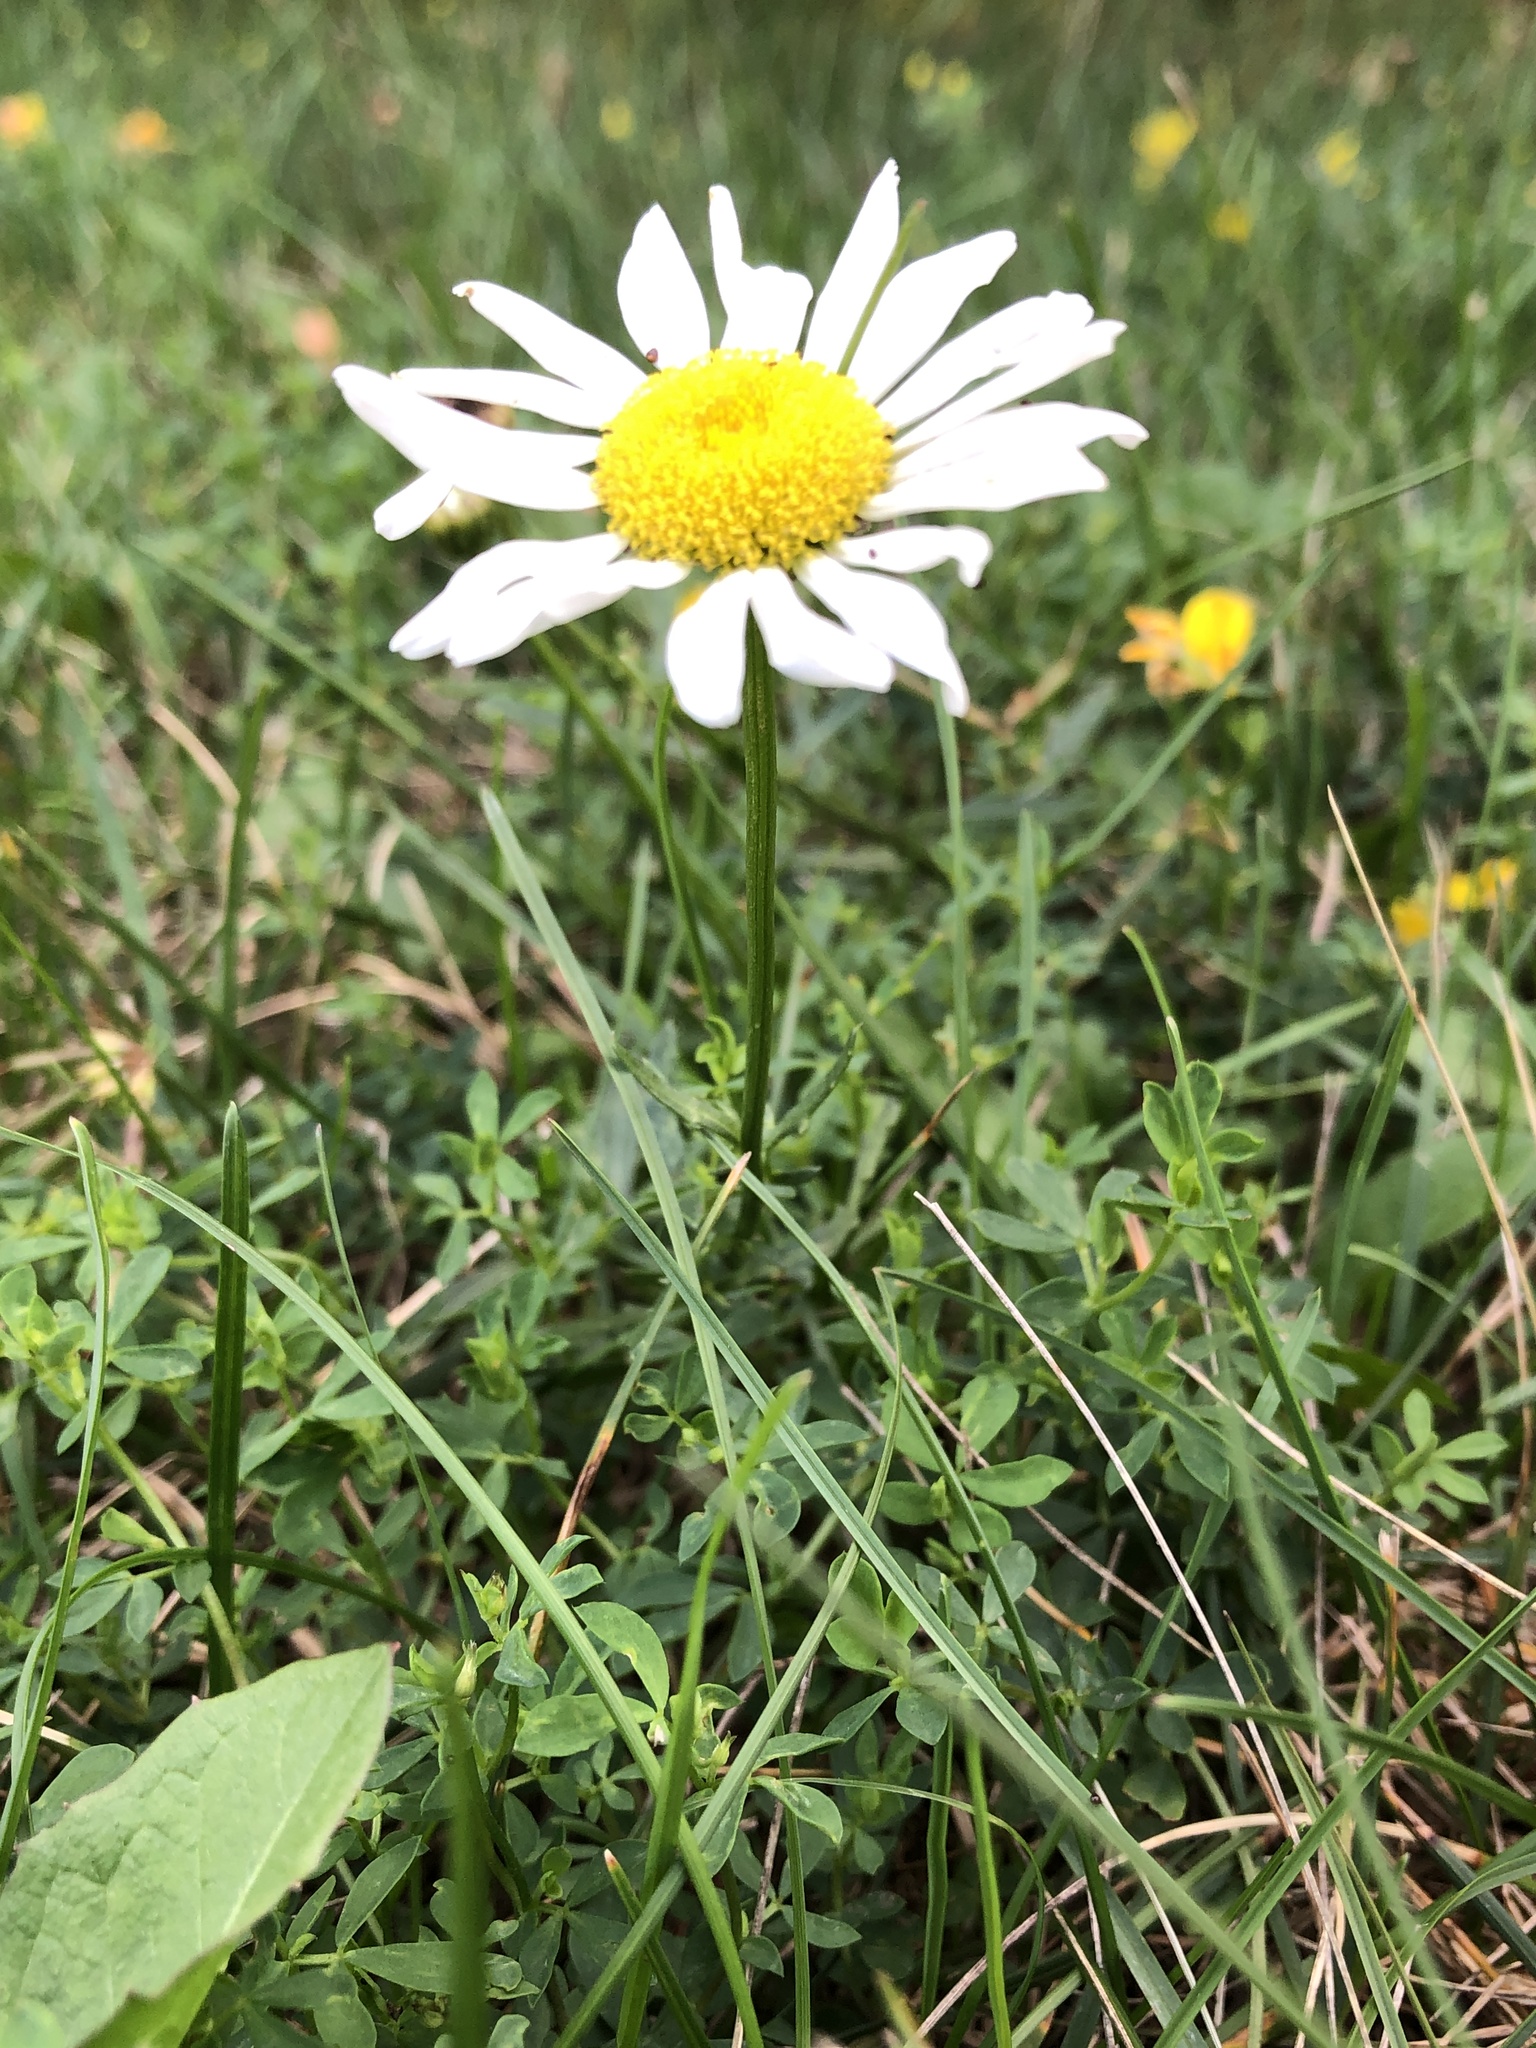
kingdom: Plantae
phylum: Tracheophyta
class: Magnoliopsida
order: Asterales
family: Asteraceae
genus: Leucanthemum
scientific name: Leucanthemum vulgare
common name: Oxeye daisy
